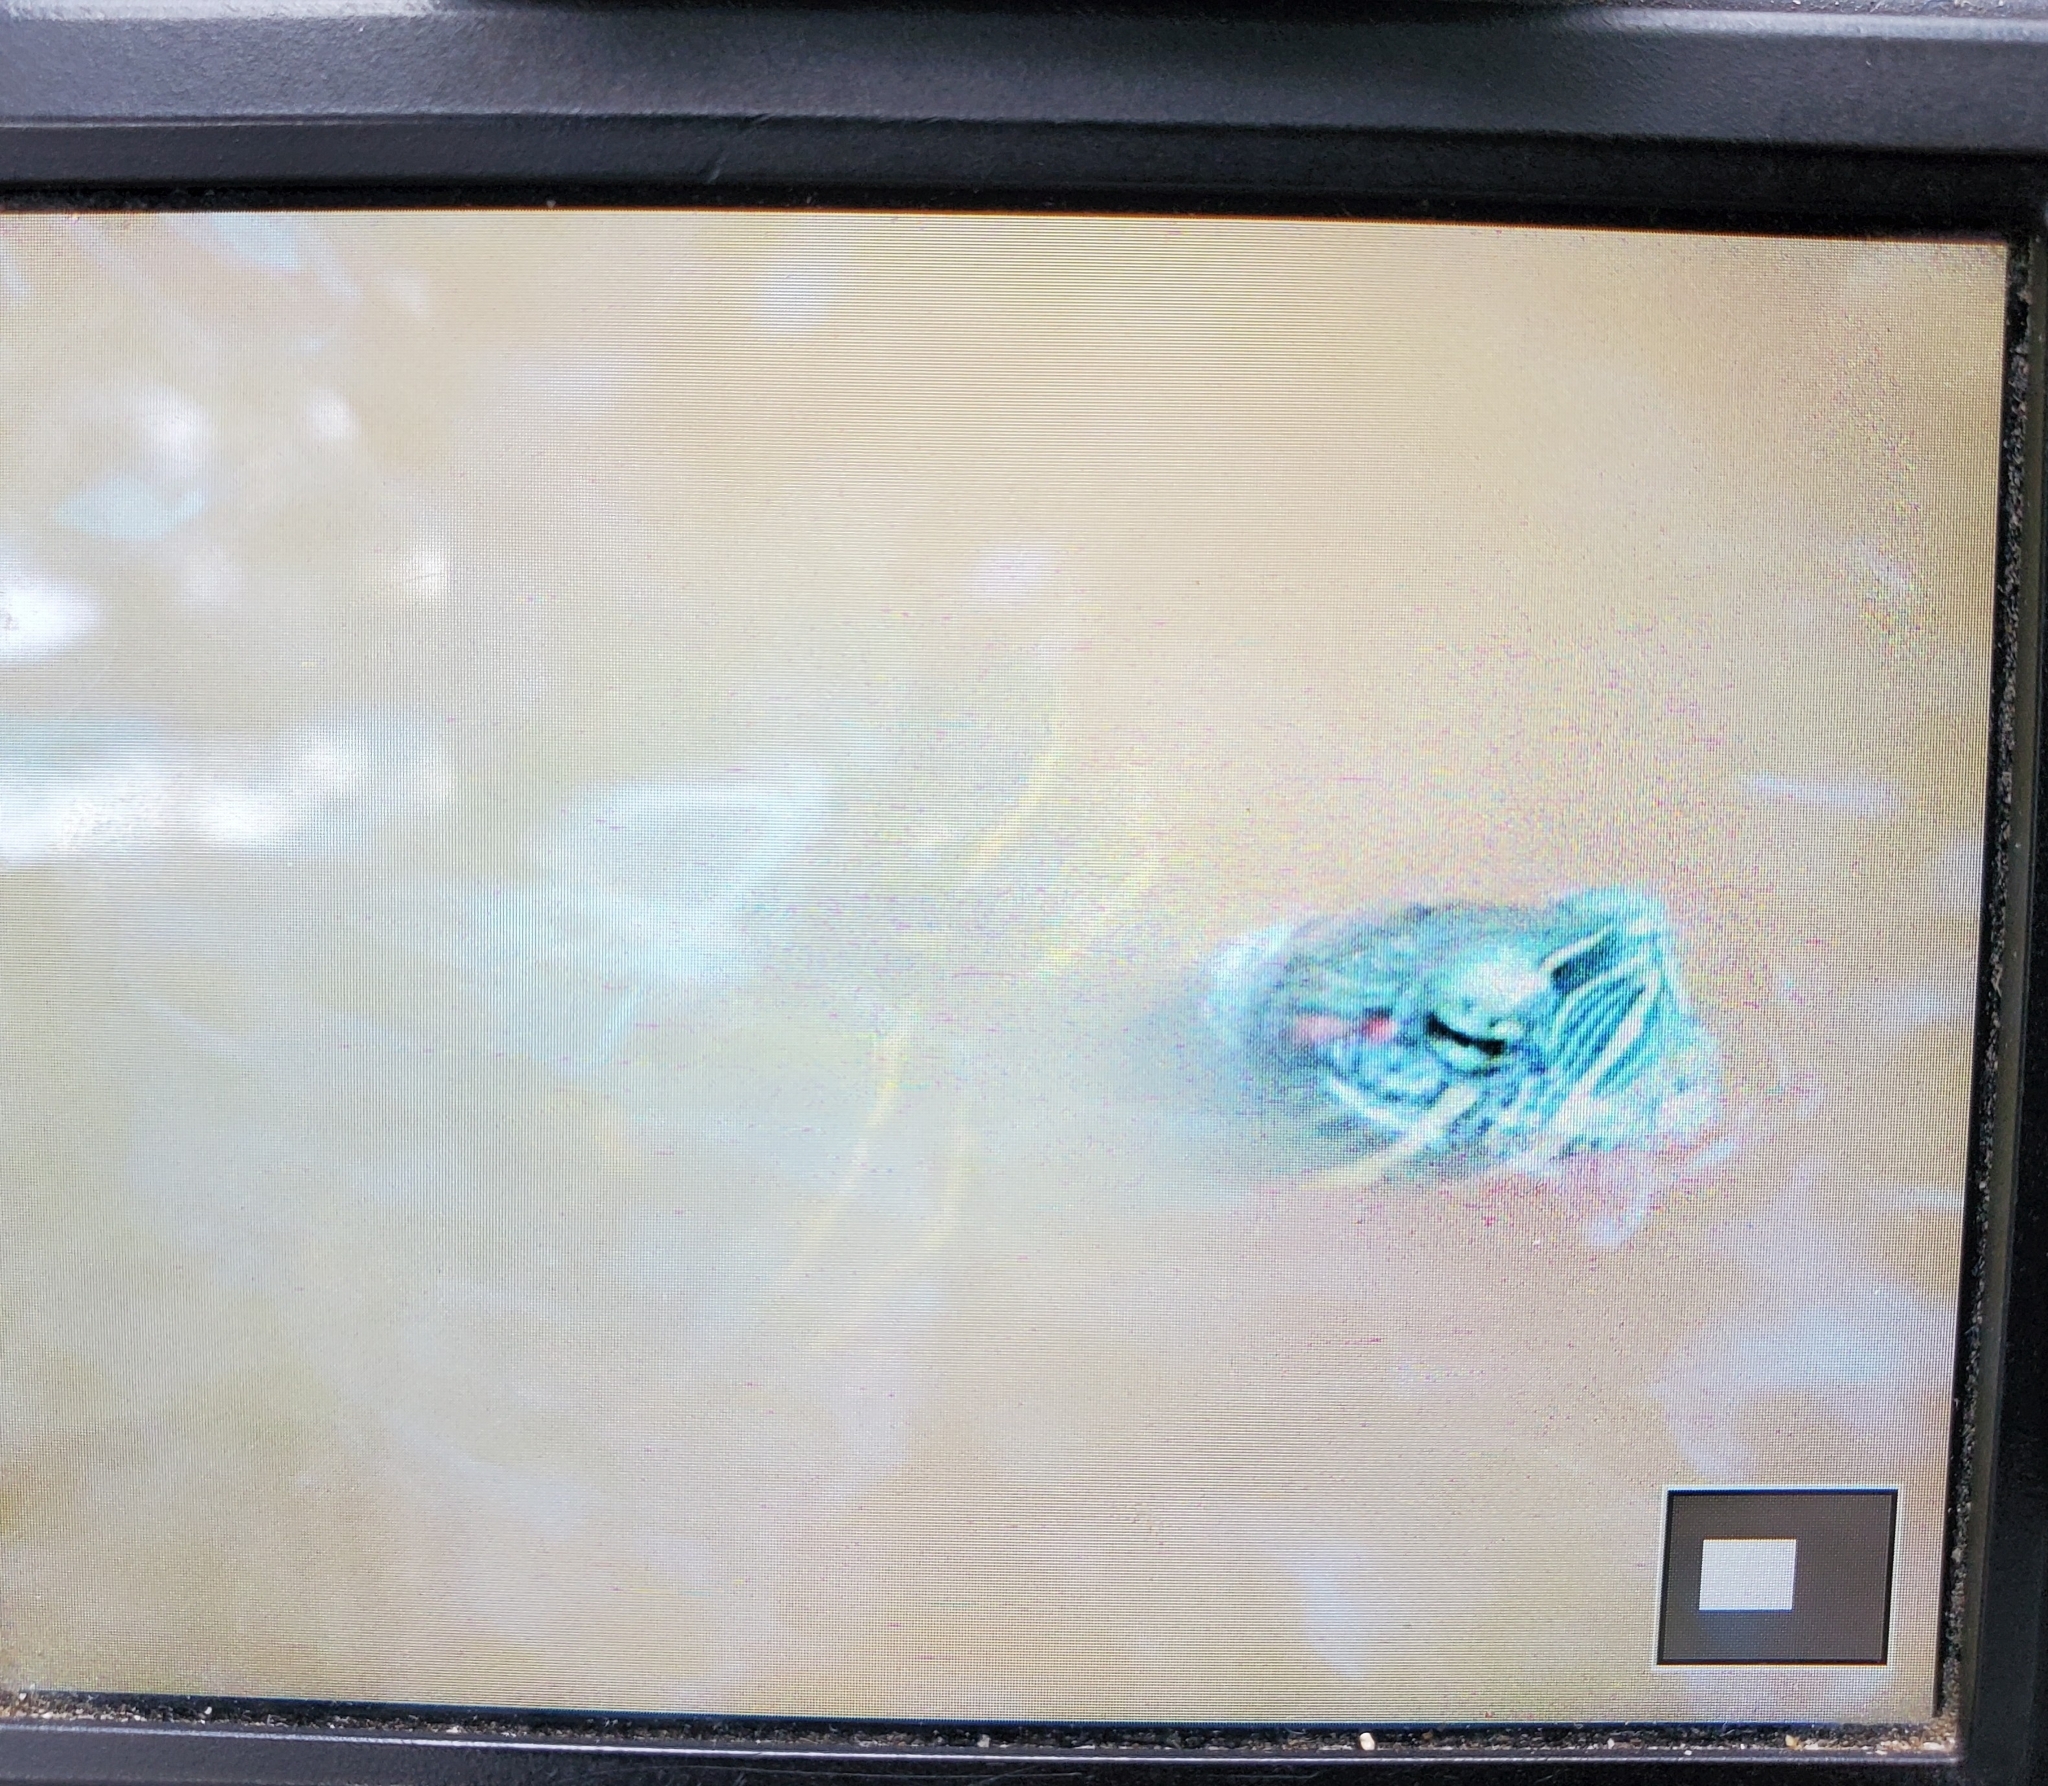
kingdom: Animalia
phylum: Chordata
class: Testudines
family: Emydidae
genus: Trachemys
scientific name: Trachemys scripta
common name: Slider
